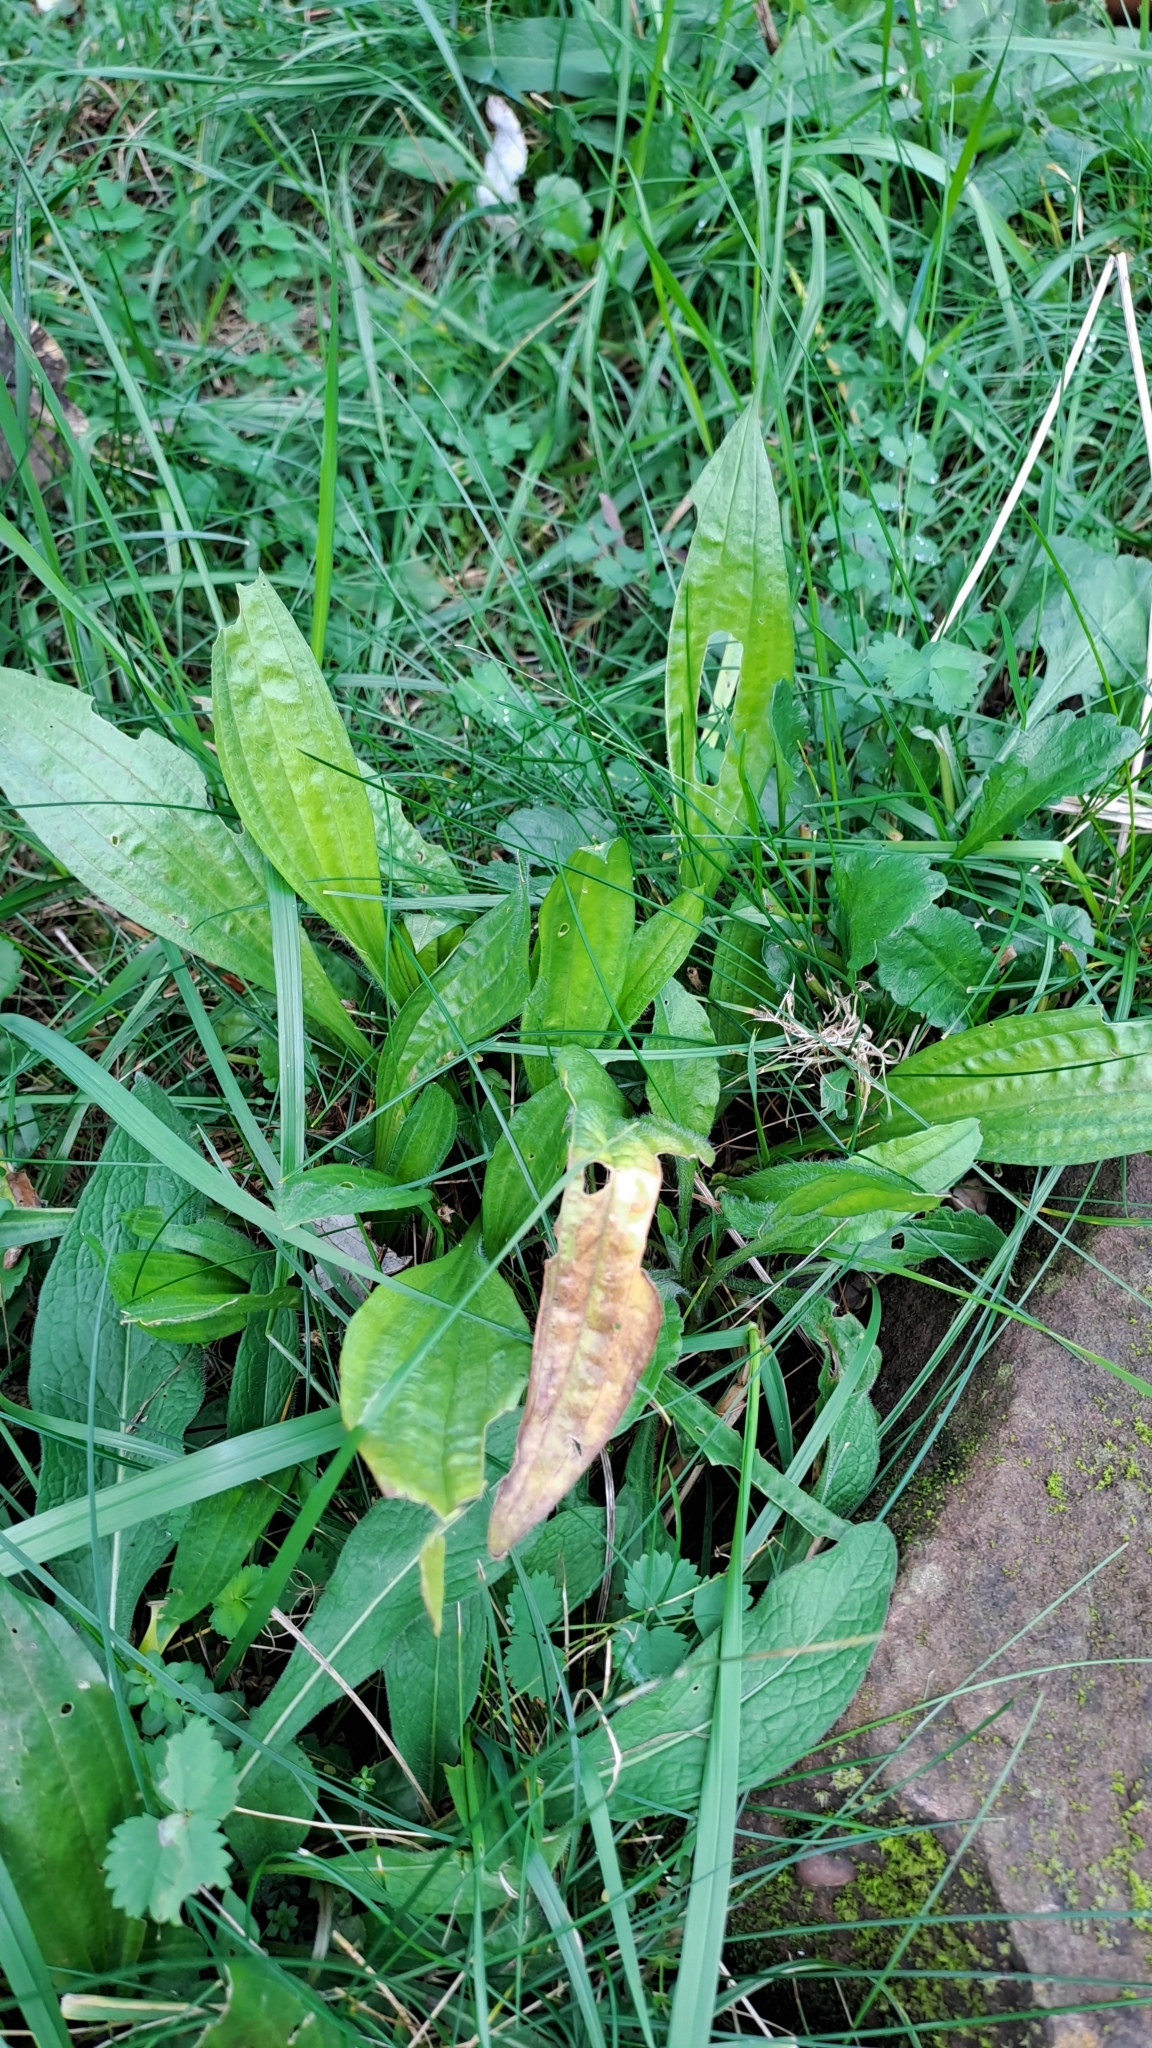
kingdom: Plantae
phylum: Tracheophyta
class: Magnoliopsida
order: Lamiales
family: Plantaginaceae
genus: Plantago
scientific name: Plantago lanceolata
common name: Ribwort plantain
